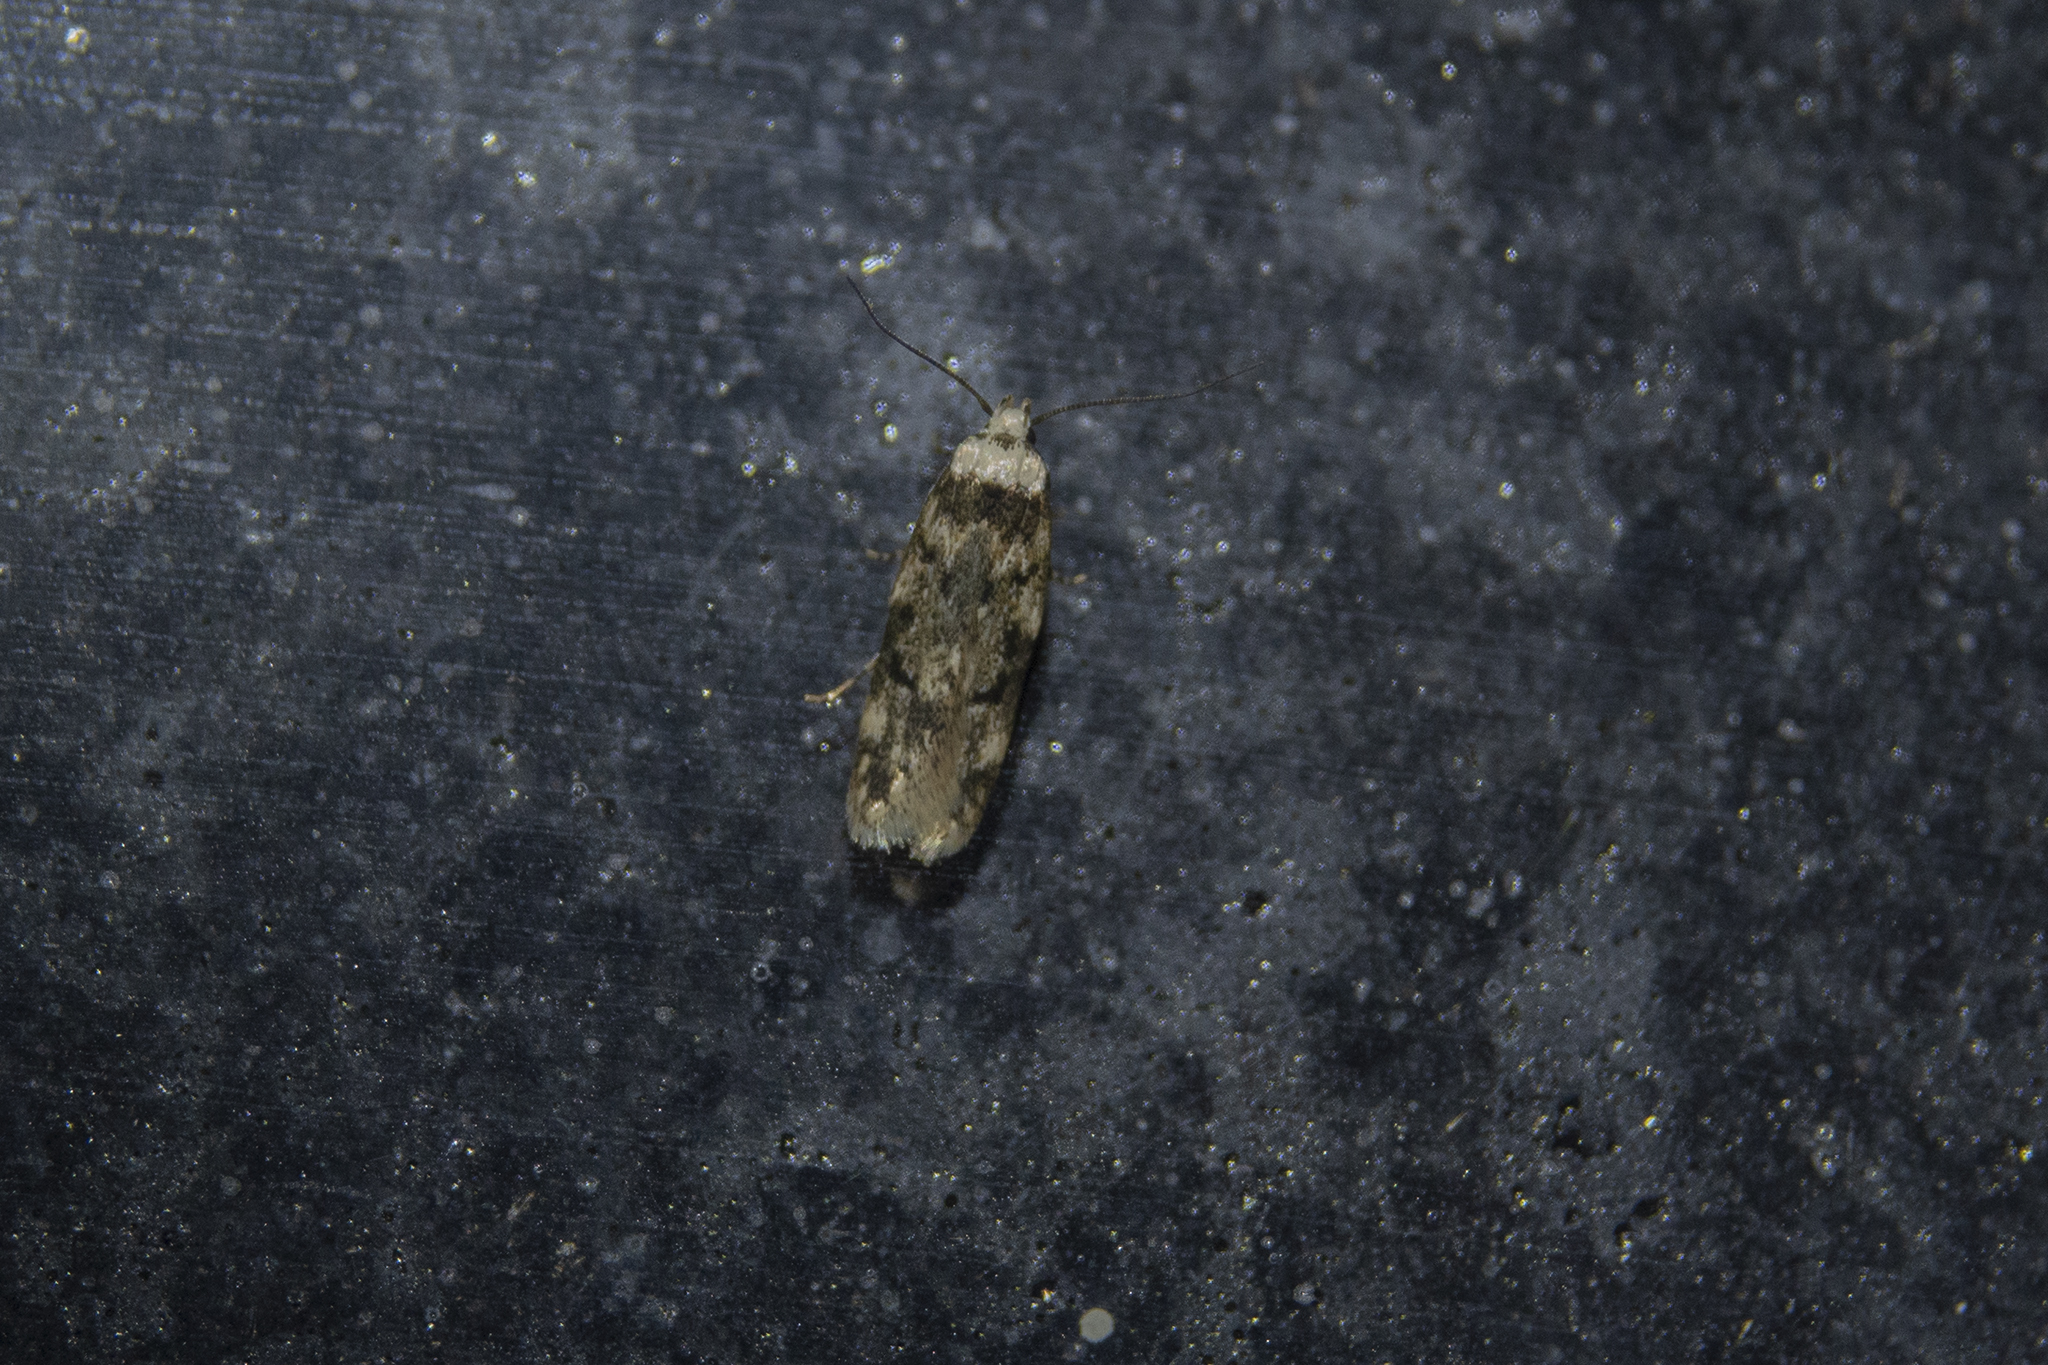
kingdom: Animalia
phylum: Arthropoda
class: Insecta
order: Lepidoptera
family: Oecophoridae
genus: Endrosis
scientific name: Endrosis sarcitrella
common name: White-shouldered house moth
